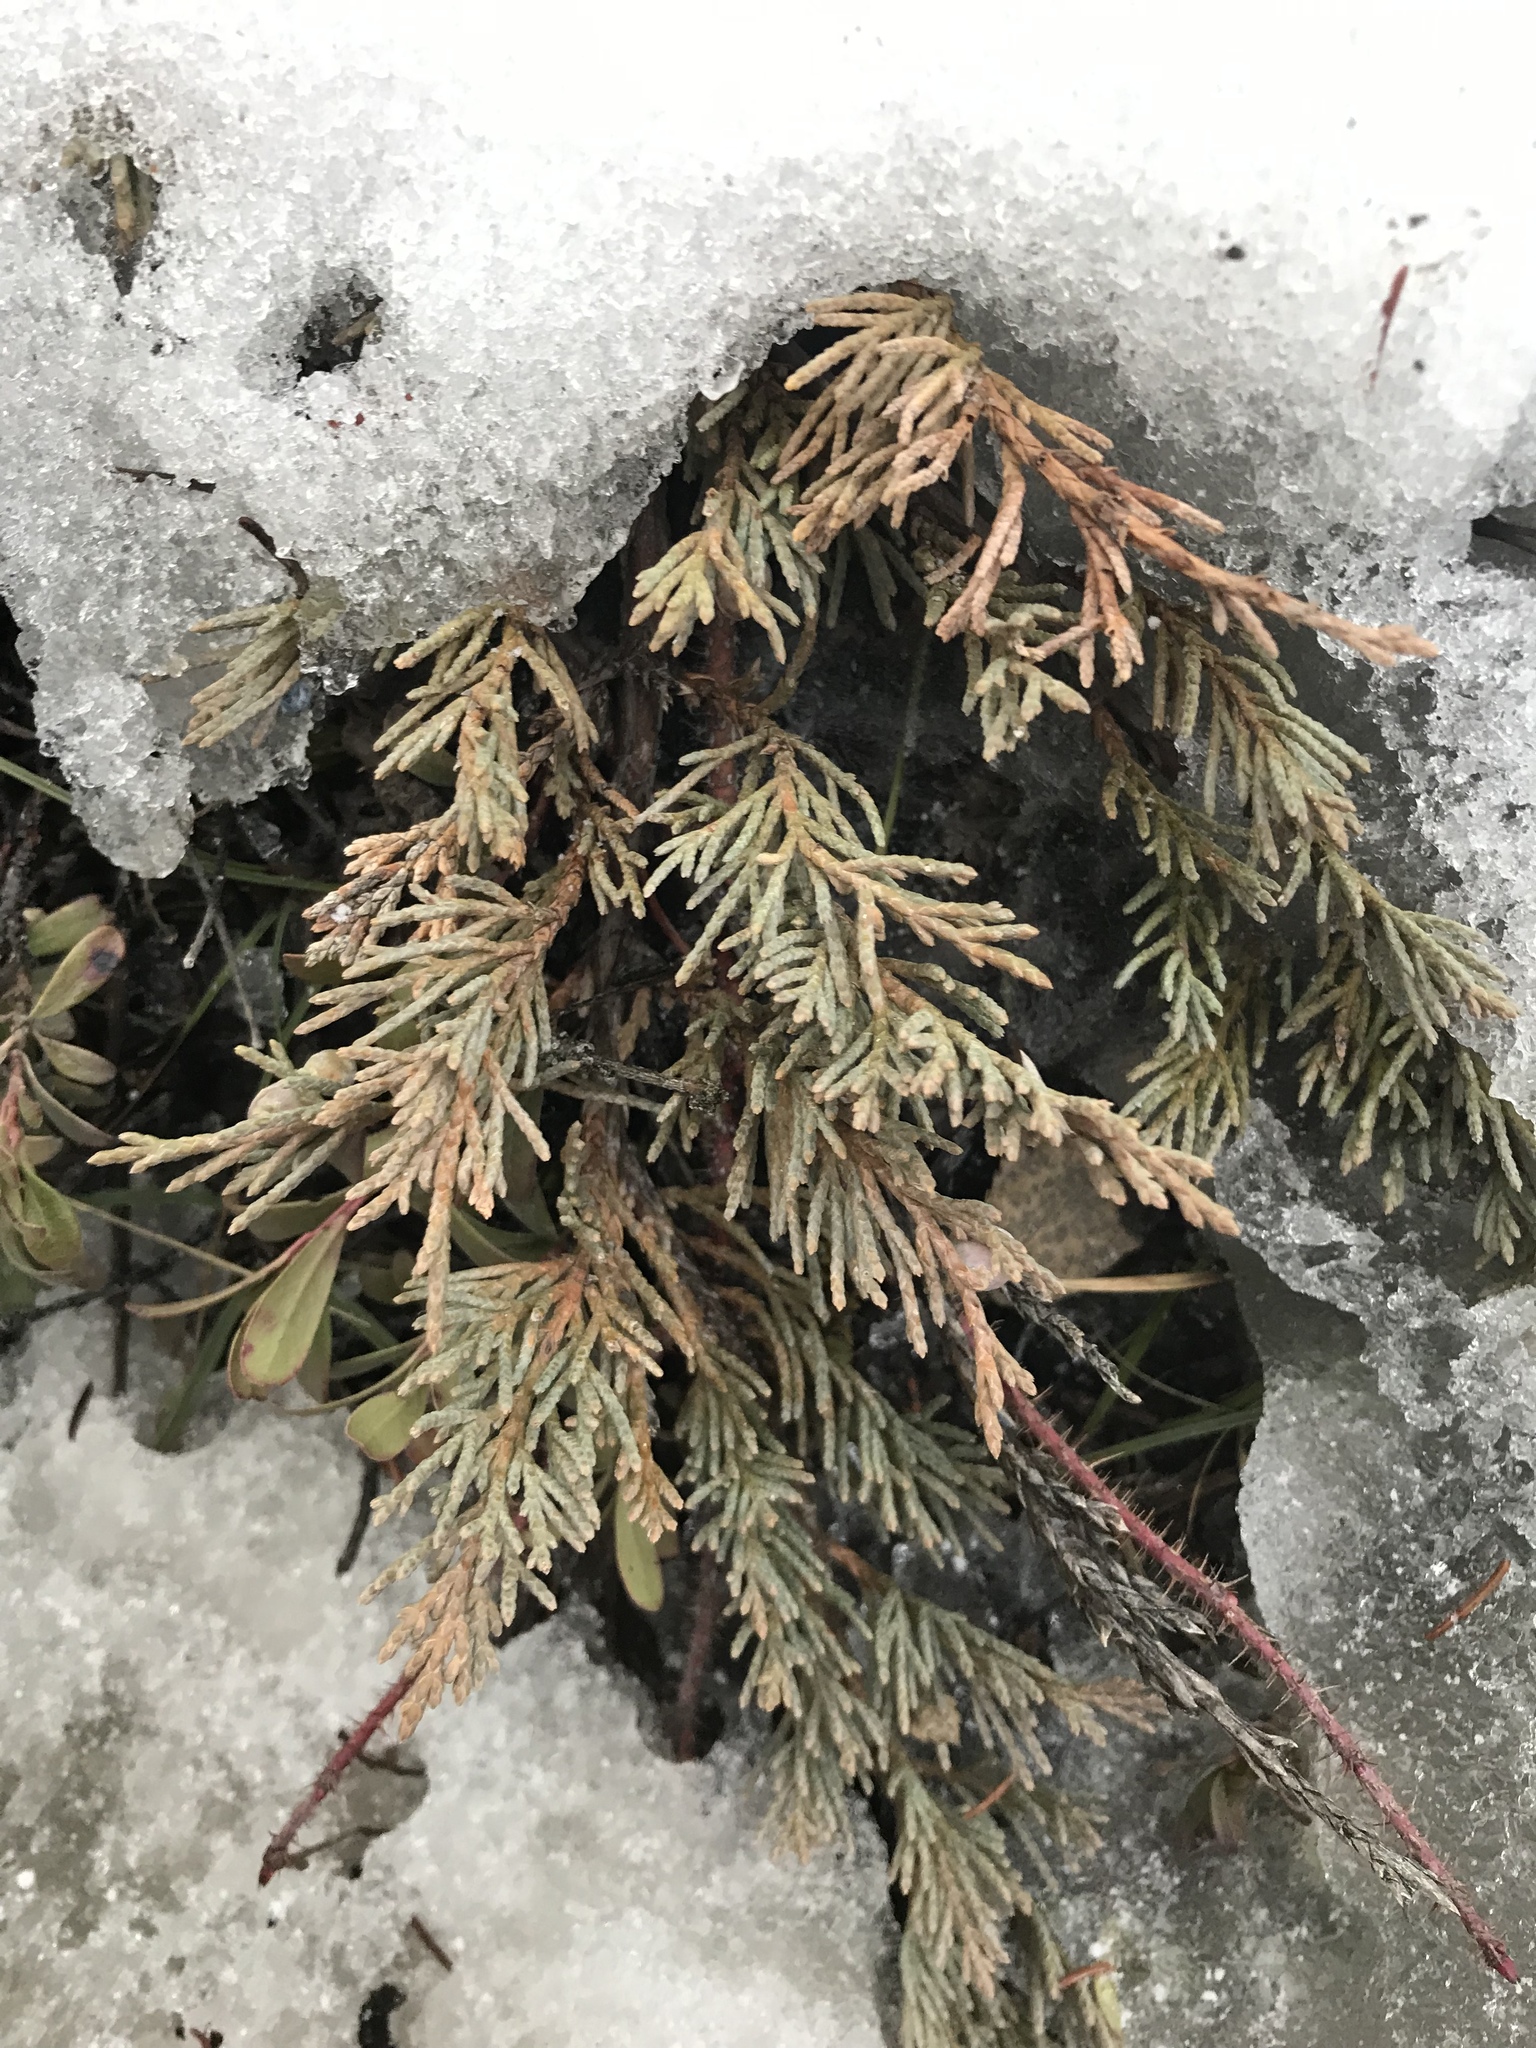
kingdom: Plantae
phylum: Tracheophyta
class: Pinopsida
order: Pinales
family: Cupressaceae
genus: Juniperus
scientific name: Juniperus horizontalis
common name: Creeping juniper
